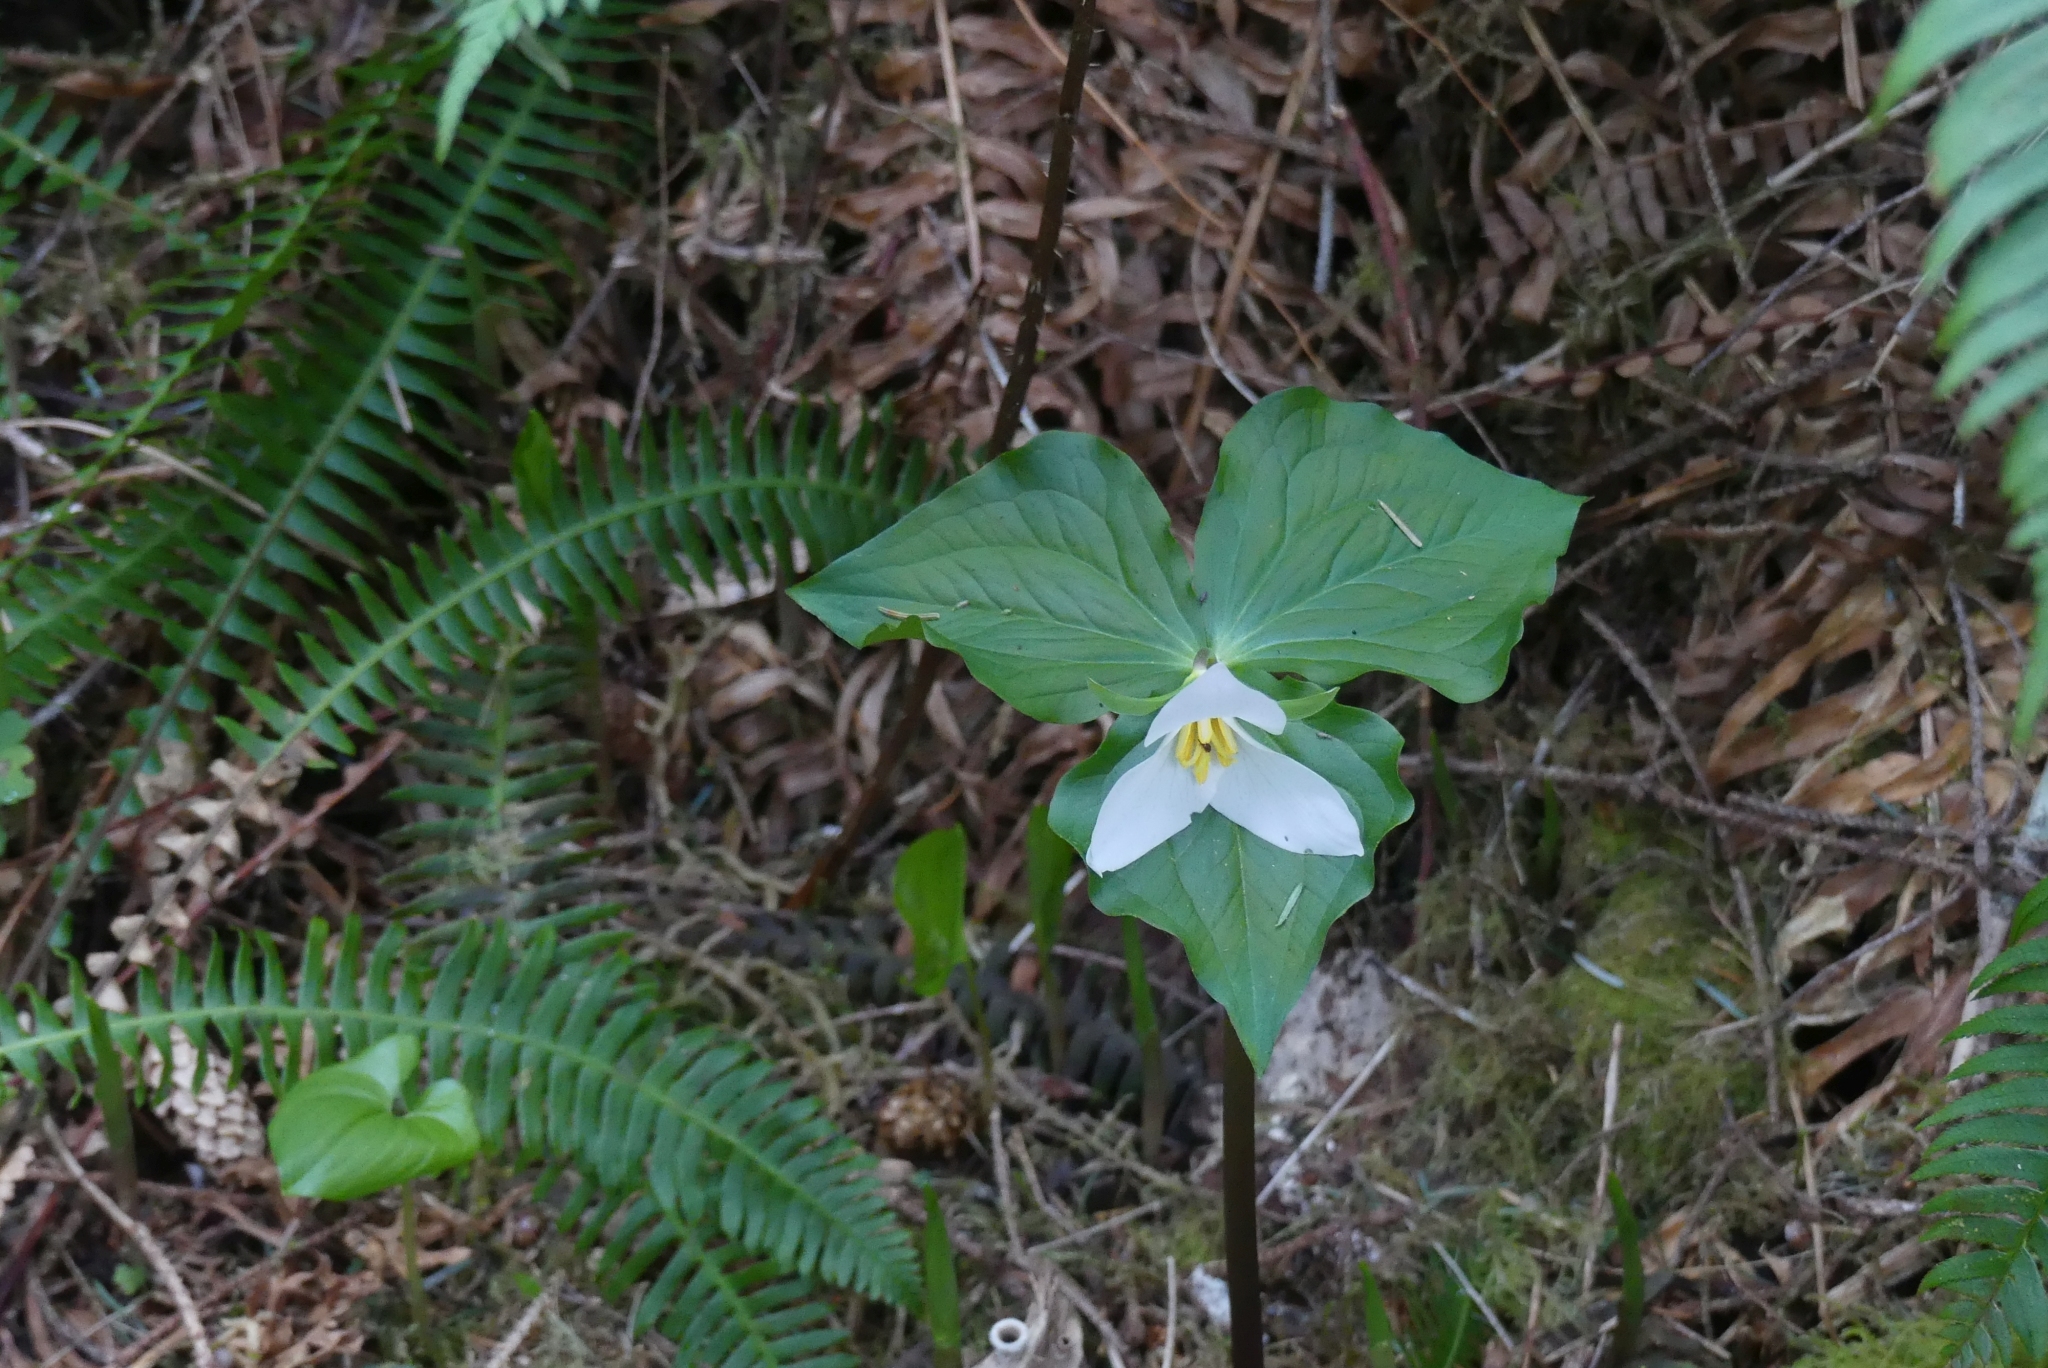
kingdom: Plantae
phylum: Tracheophyta
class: Liliopsida
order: Liliales
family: Melanthiaceae
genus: Trillium
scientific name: Trillium ovatum
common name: Pacific trillium
